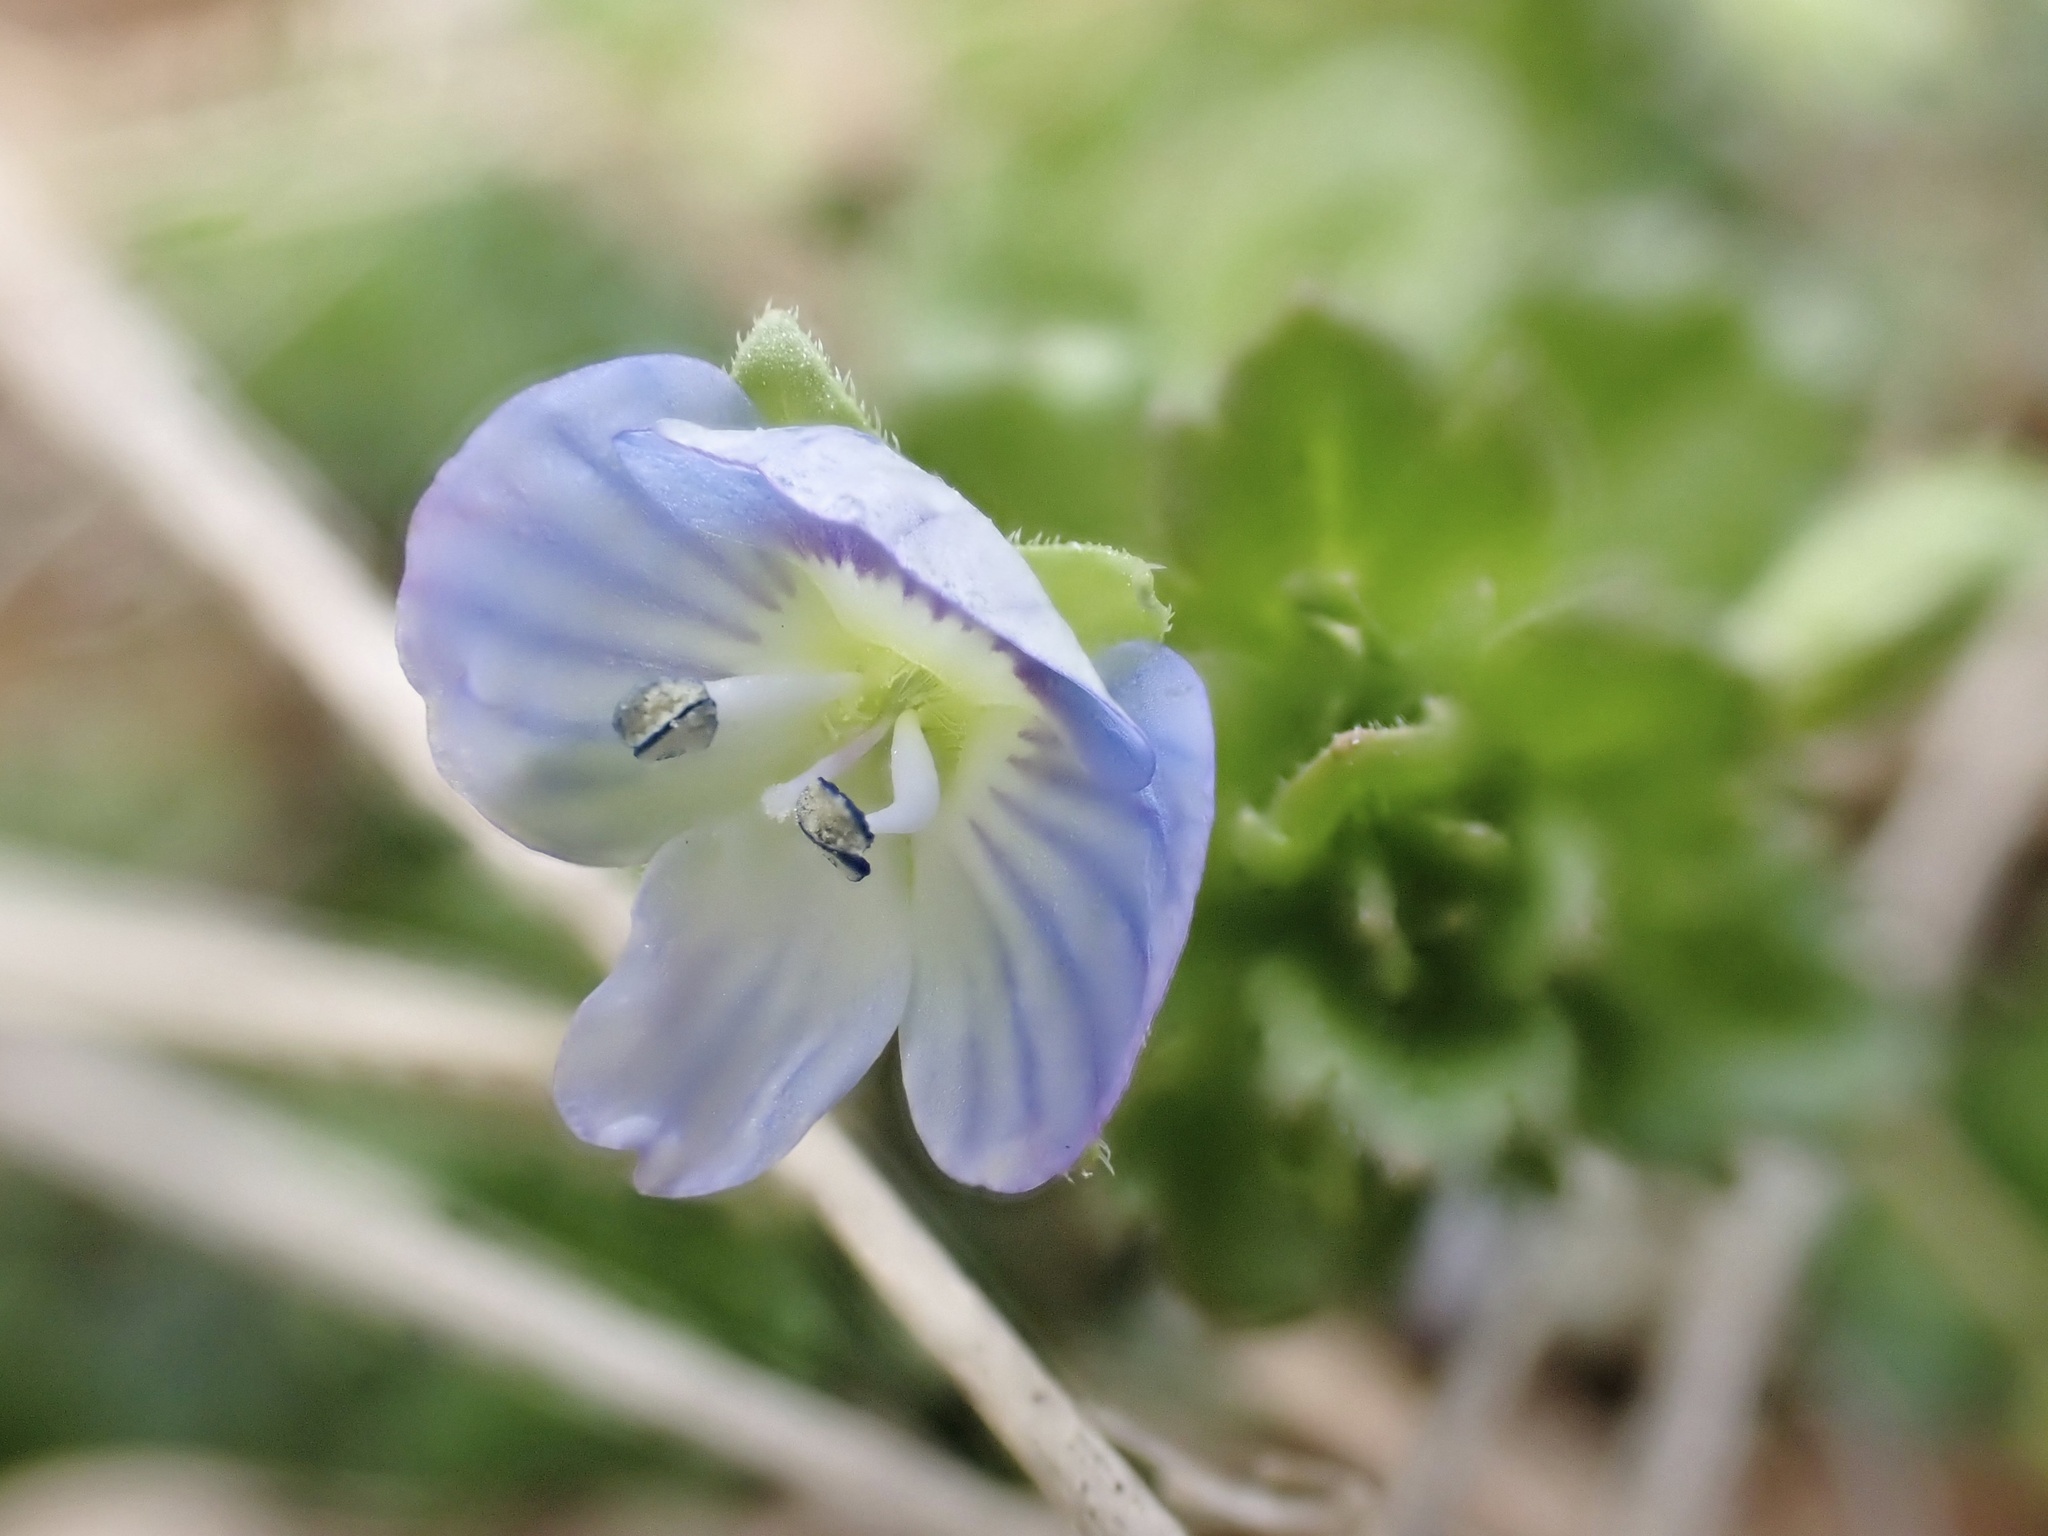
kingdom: Plantae
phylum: Tracheophyta
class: Magnoliopsida
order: Lamiales
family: Plantaginaceae
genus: Veronica
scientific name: Veronica persica
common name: Common field-speedwell
